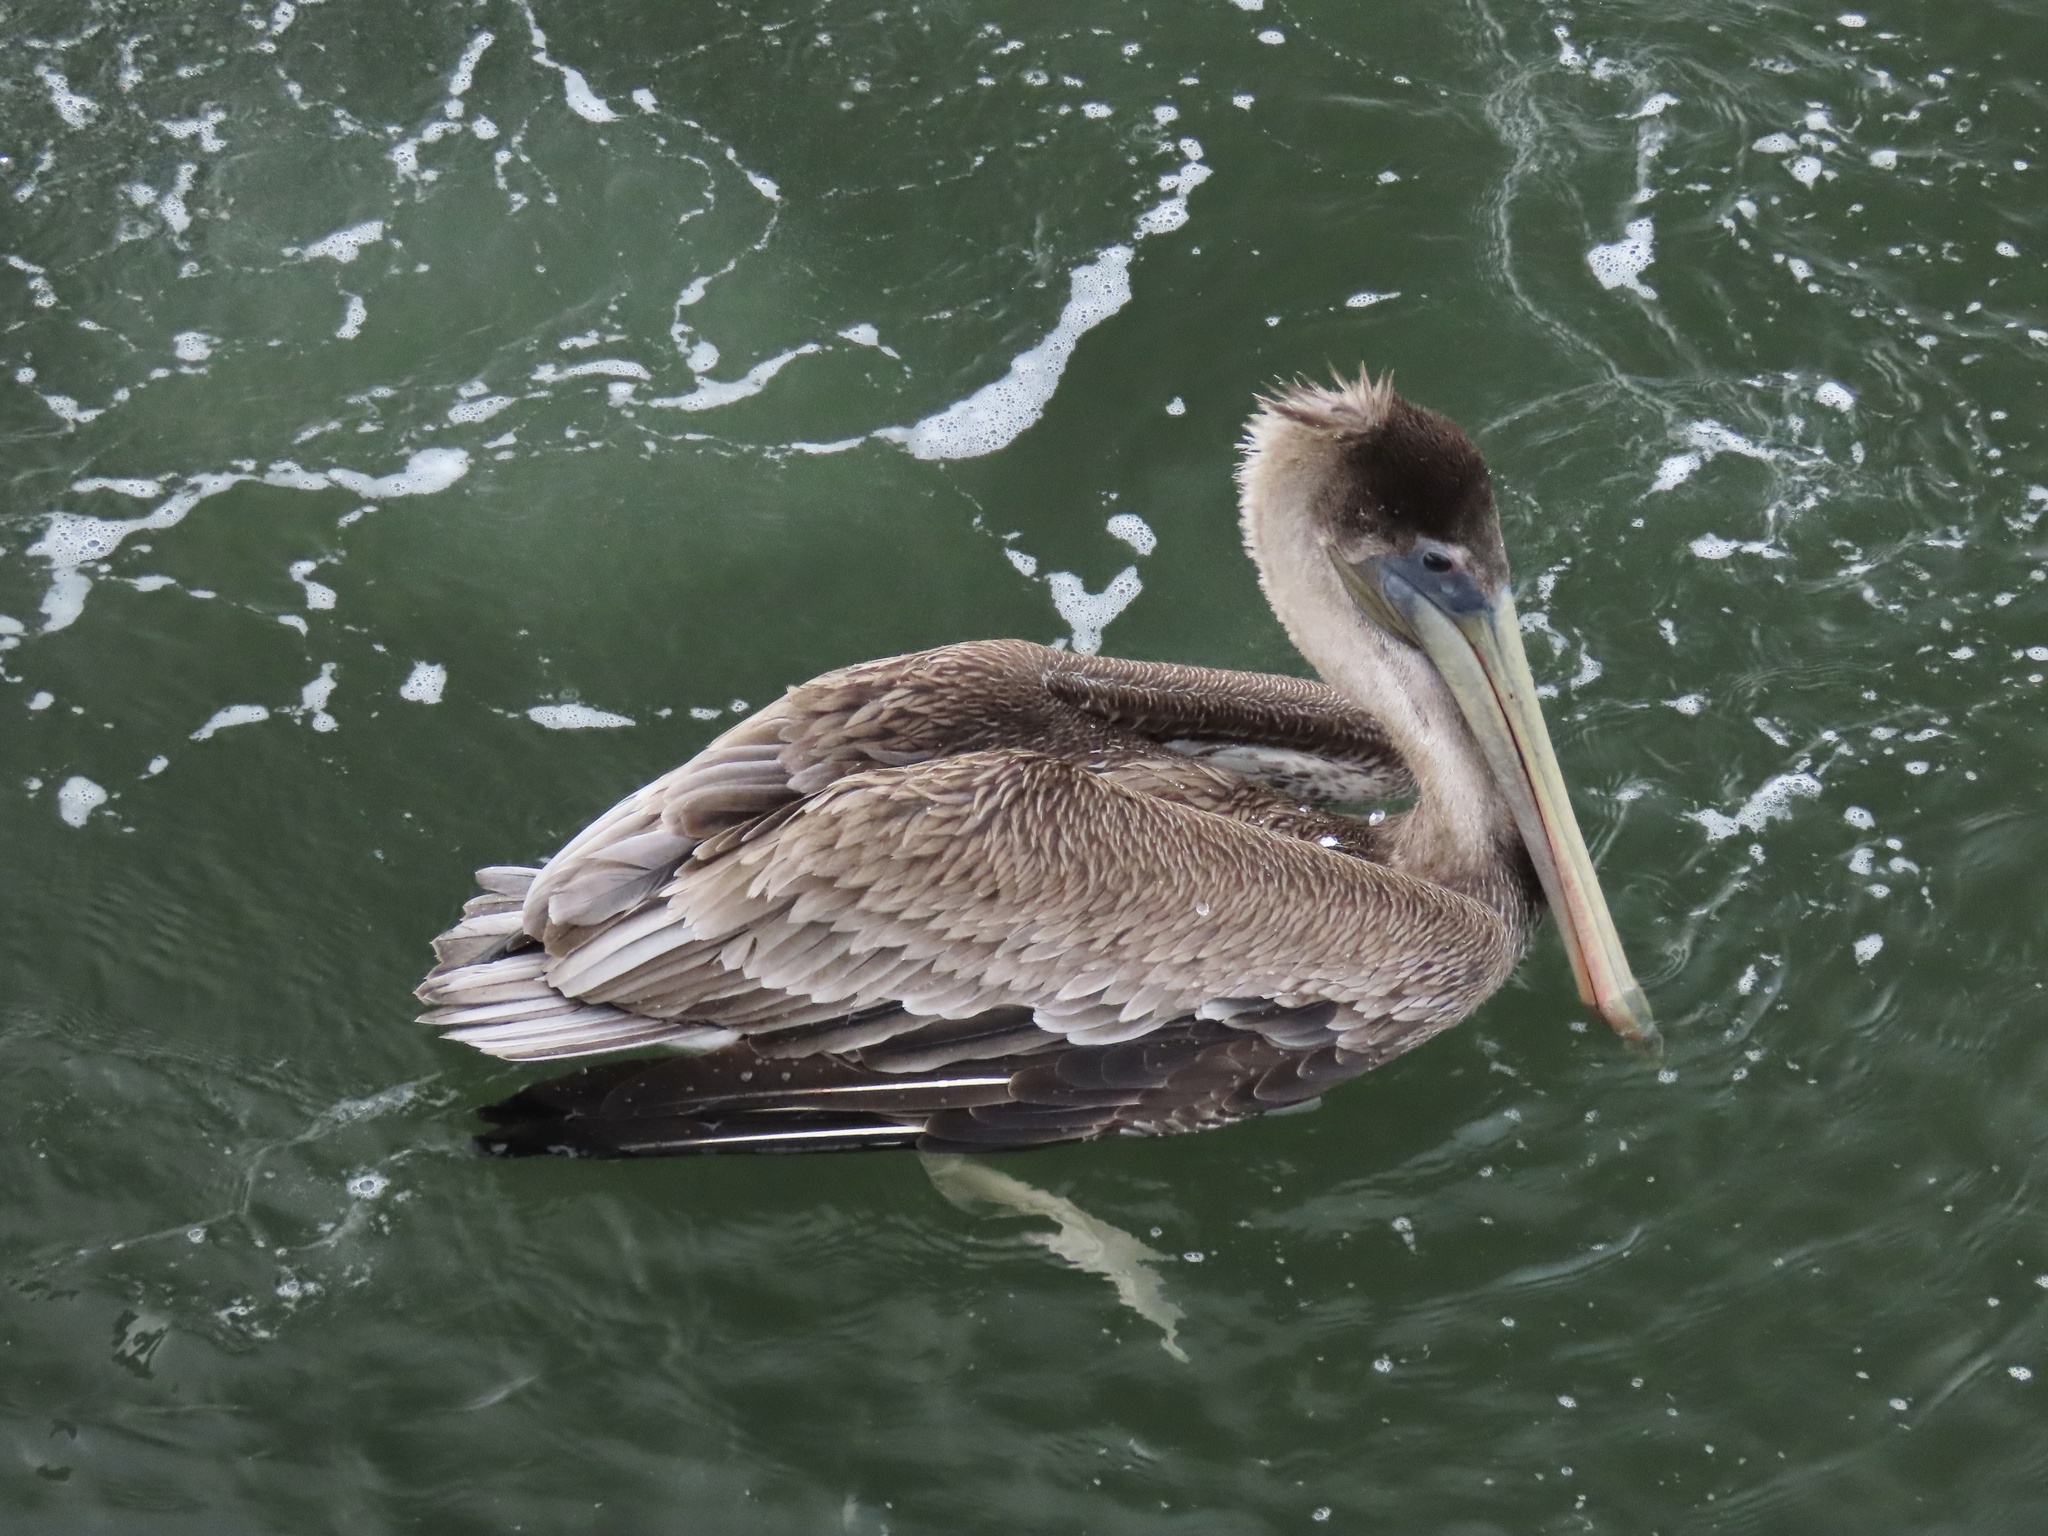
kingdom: Animalia
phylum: Chordata
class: Aves
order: Pelecaniformes
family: Pelecanidae
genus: Pelecanus
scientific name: Pelecanus occidentalis
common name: Brown pelican
